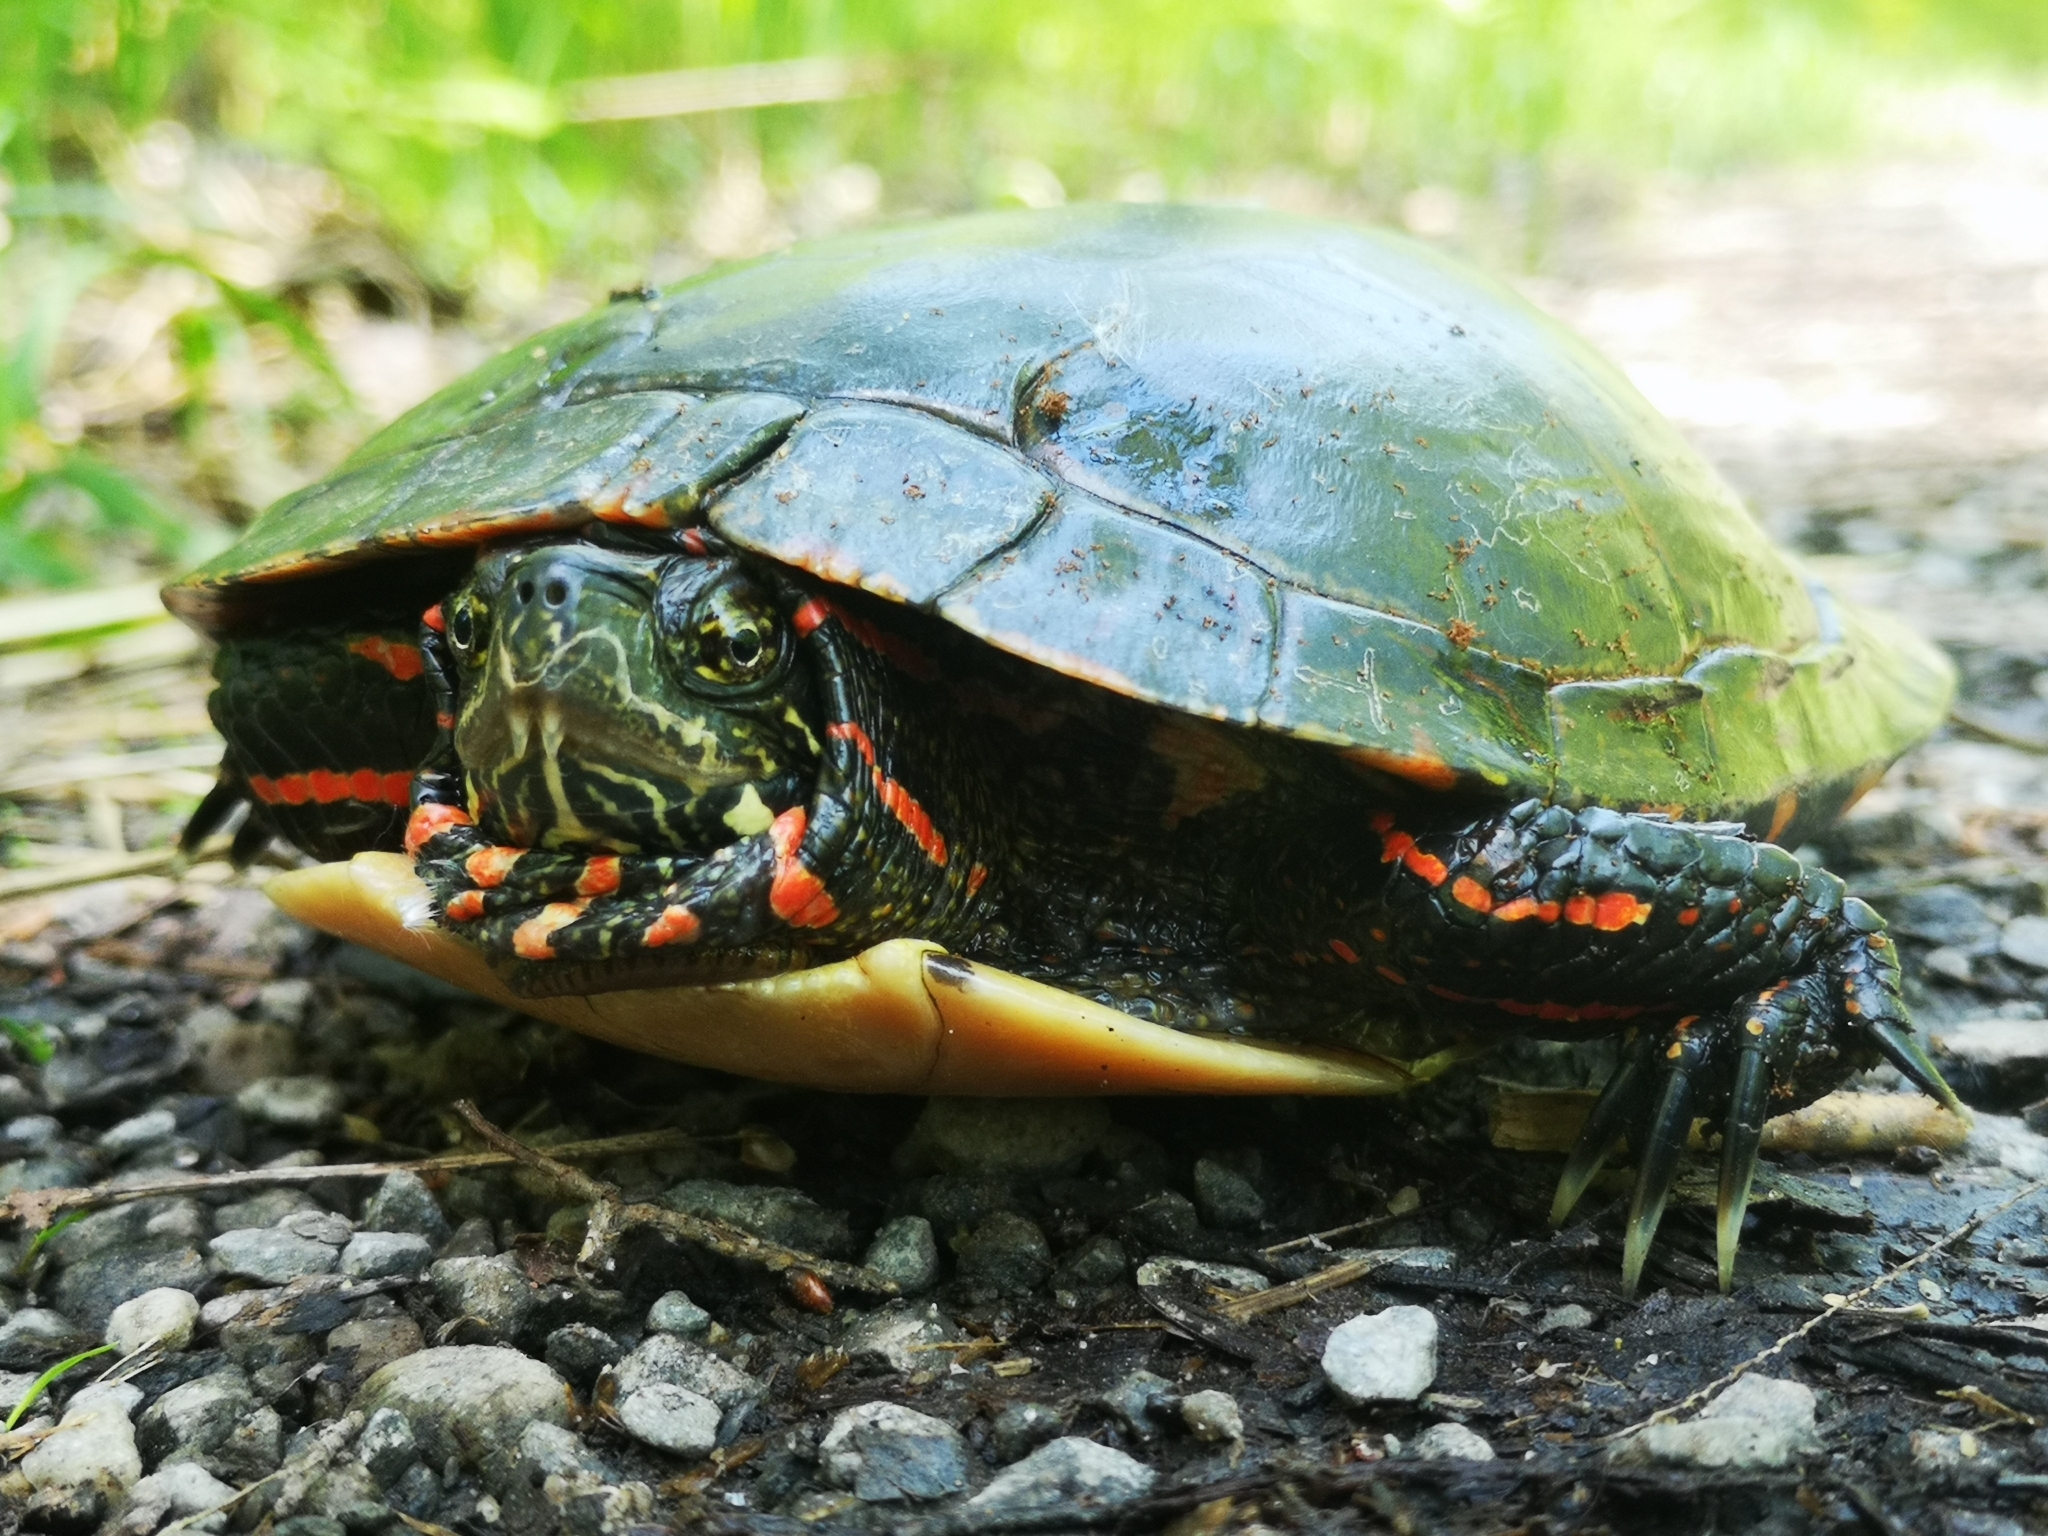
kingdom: Animalia
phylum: Chordata
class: Testudines
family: Emydidae
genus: Chrysemys
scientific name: Chrysemys picta
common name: Painted turtle
